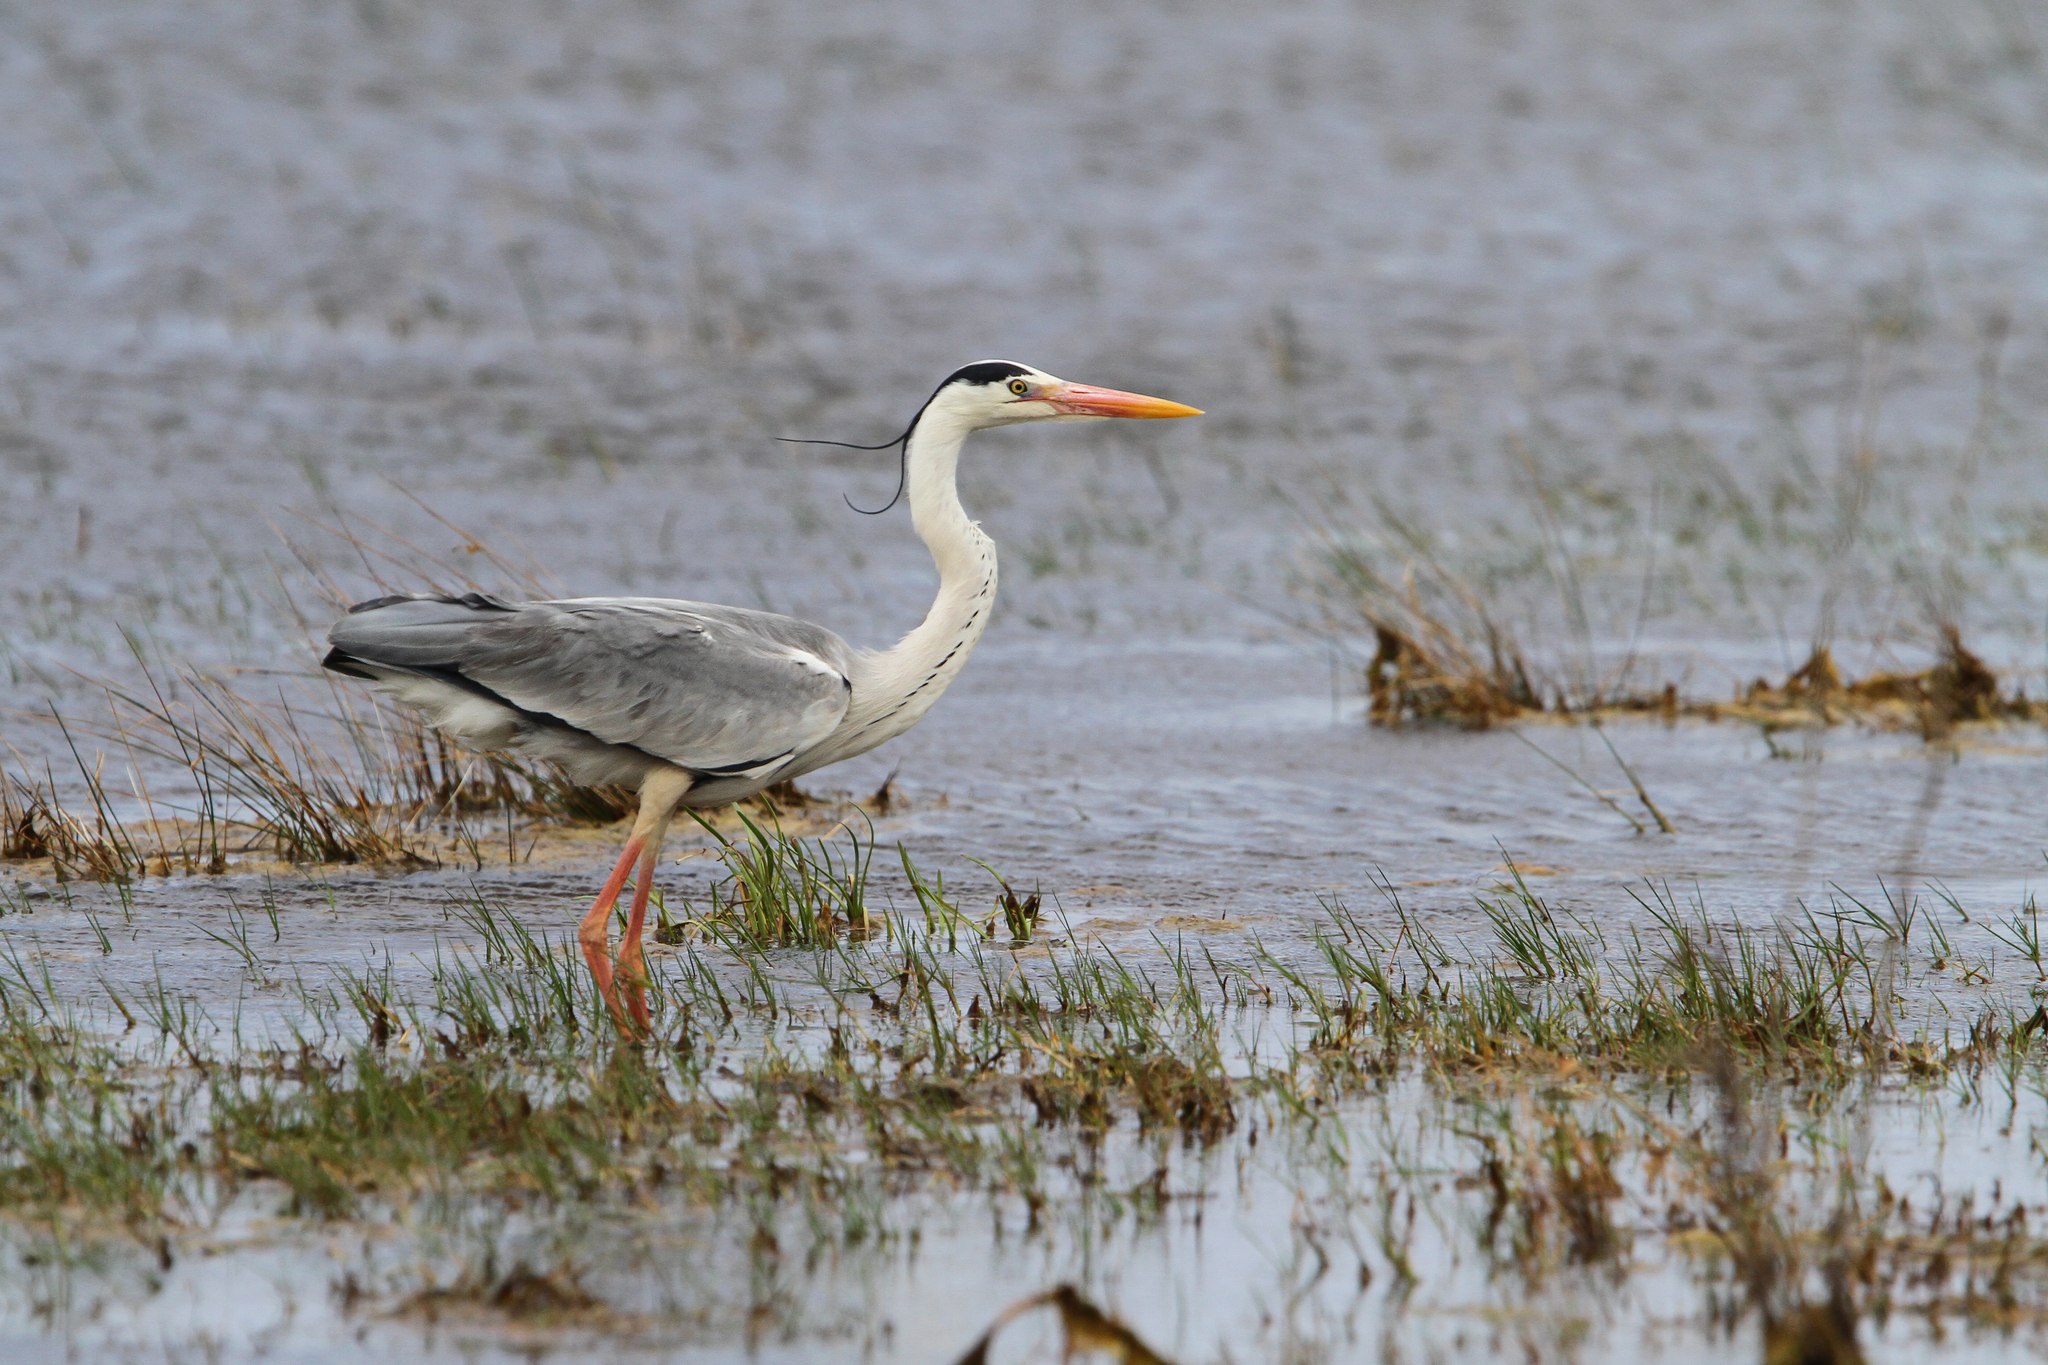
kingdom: Animalia
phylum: Chordata
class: Aves
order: Pelecaniformes
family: Ardeidae
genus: Ardea
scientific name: Ardea cinerea
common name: Grey heron
